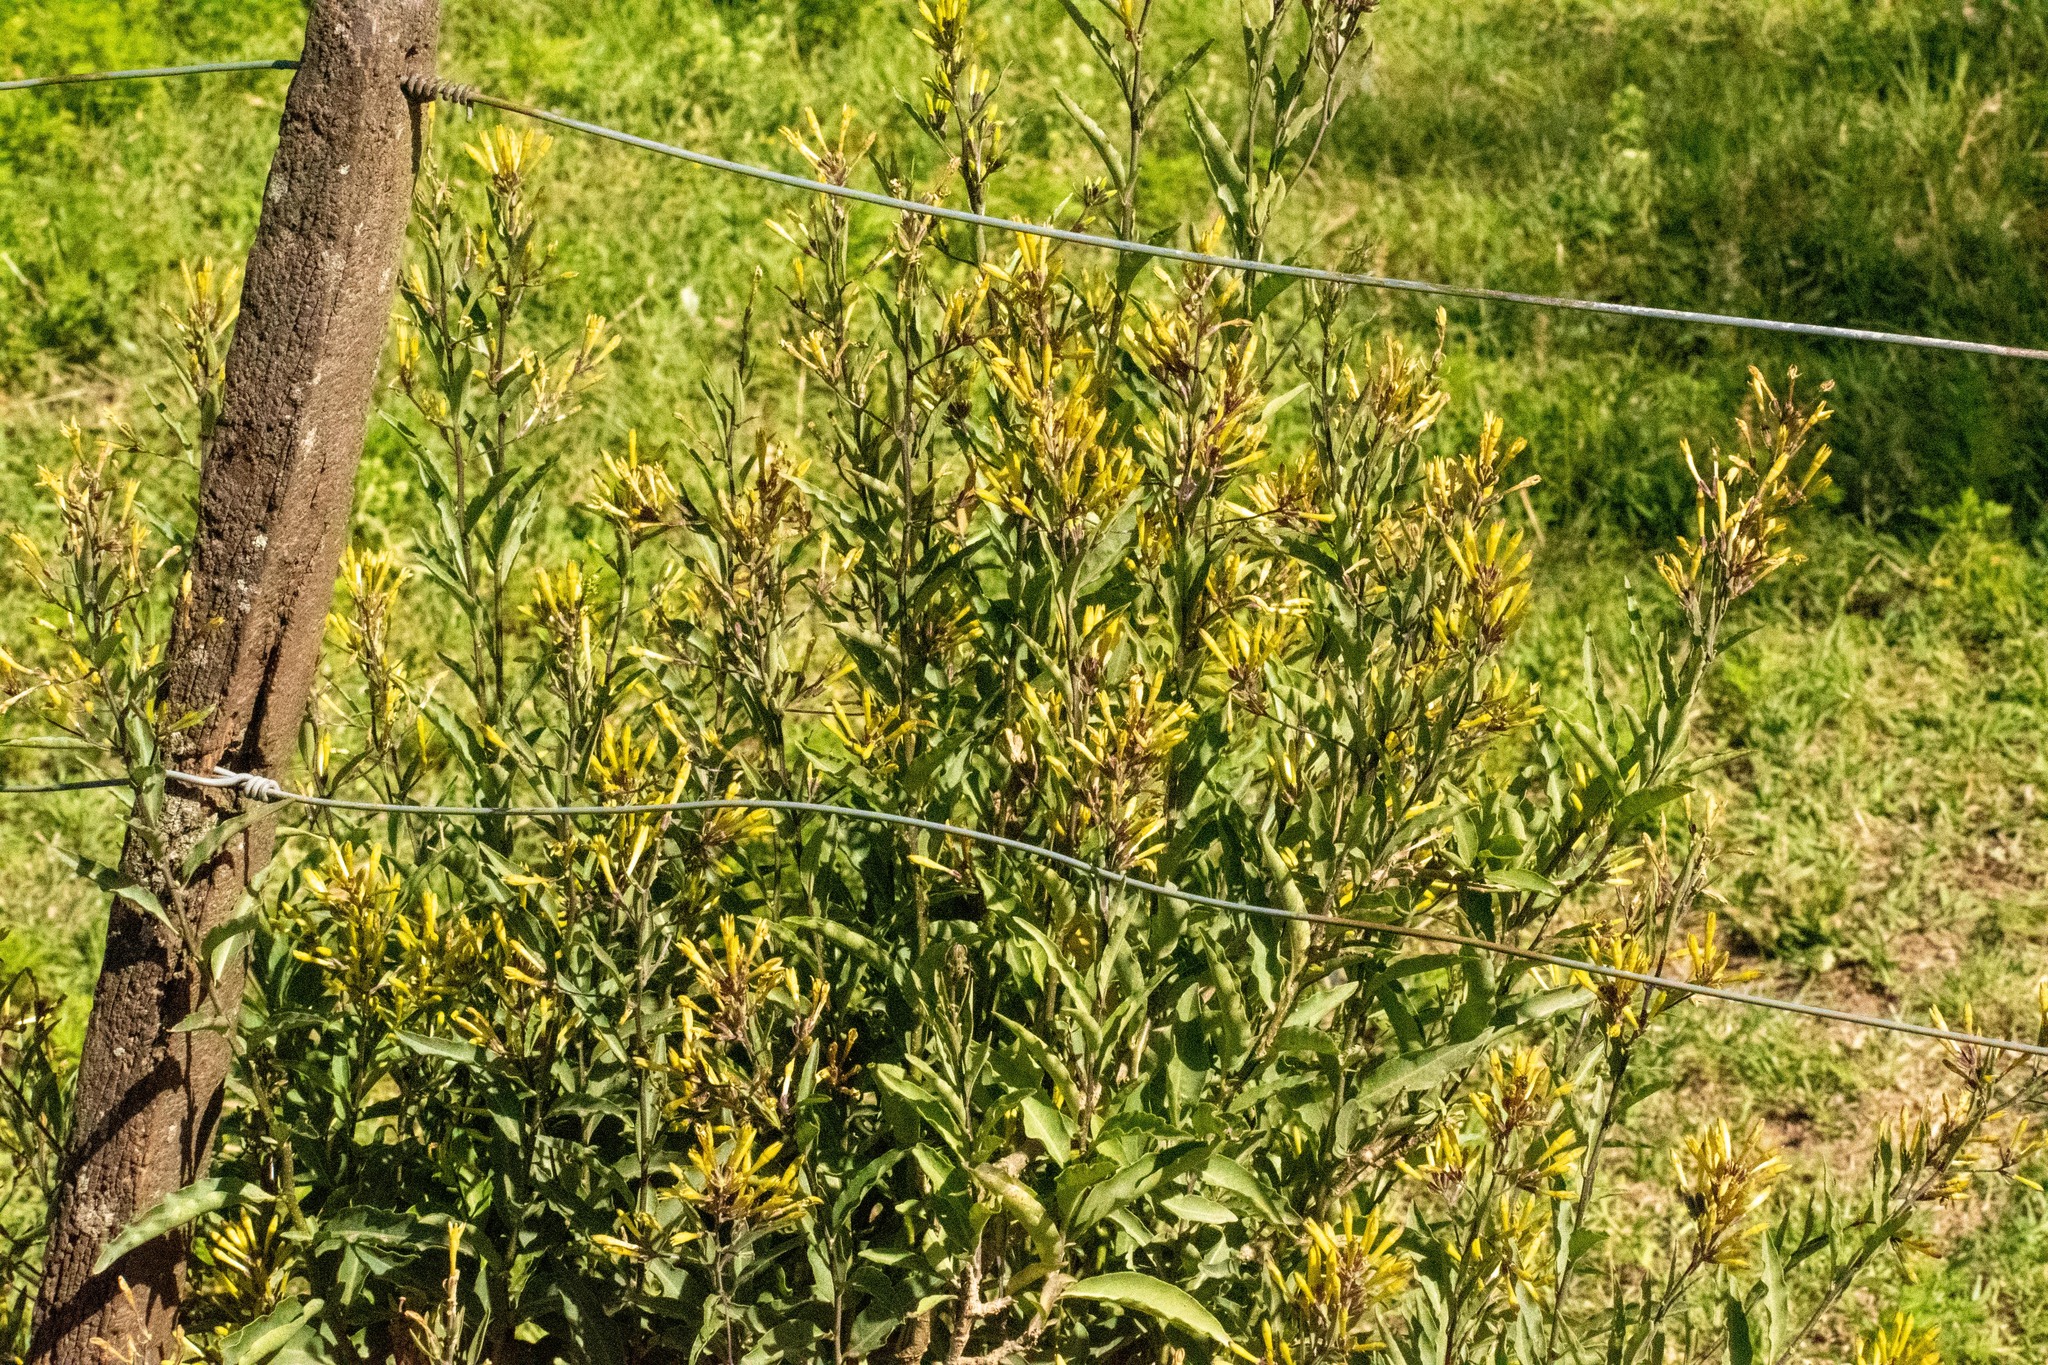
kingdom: Plantae
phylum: Tracheophyta
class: Magnoliopsida
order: Solanales
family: Solanaceae
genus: Cestrum
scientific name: Cestrum parqui
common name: Chilean cestrum
